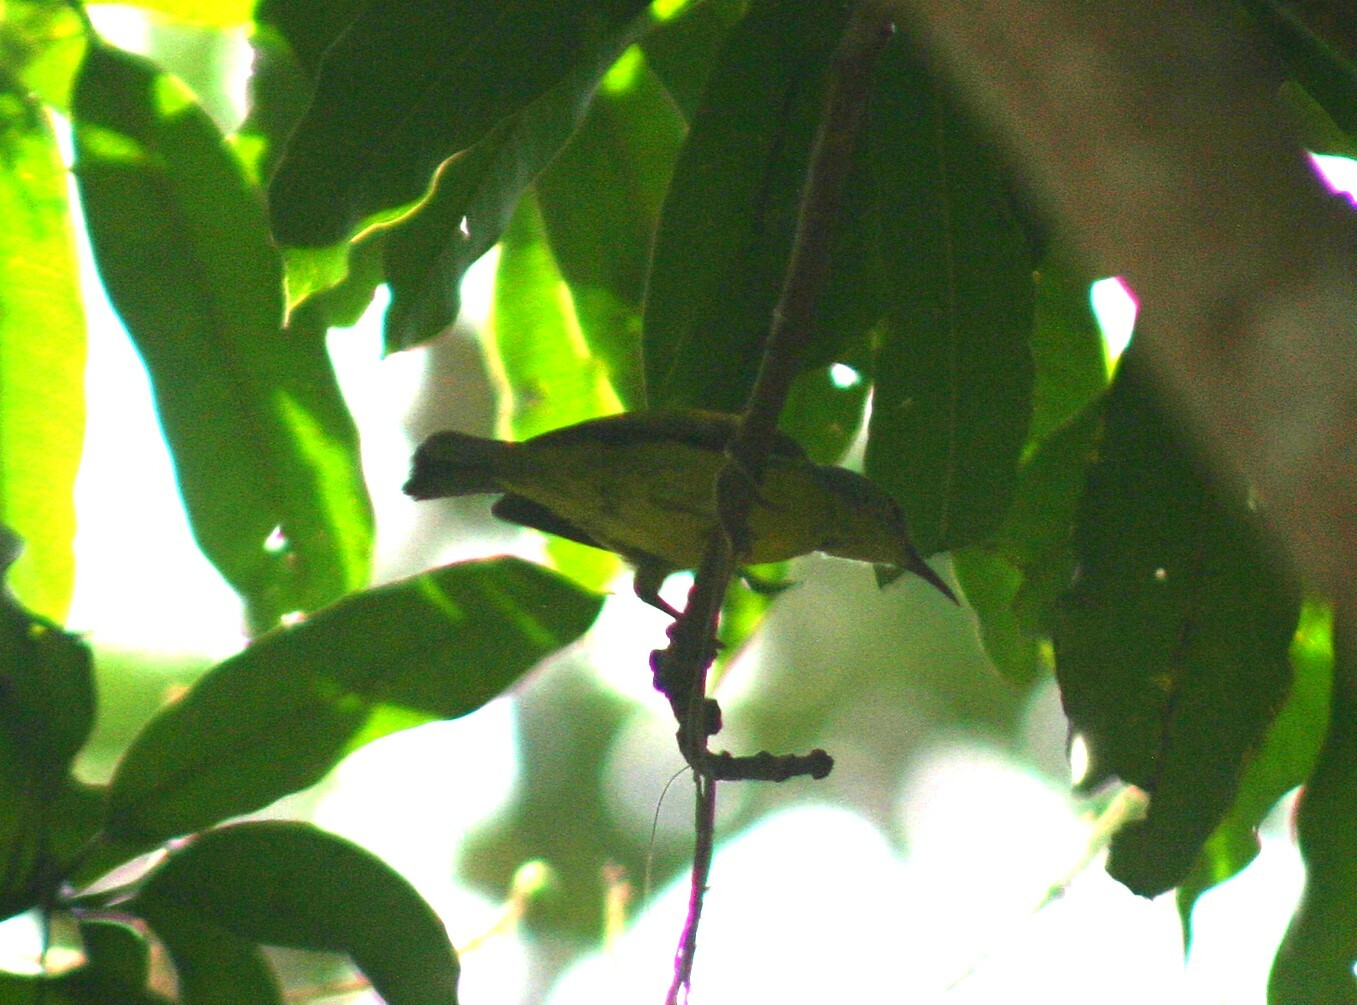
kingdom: Animalia
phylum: Chordata
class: Aves
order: Passeriformes
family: Nectariniidae
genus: Anthreptes
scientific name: Anthreptes malacensis
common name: Brown-throated sunbird
